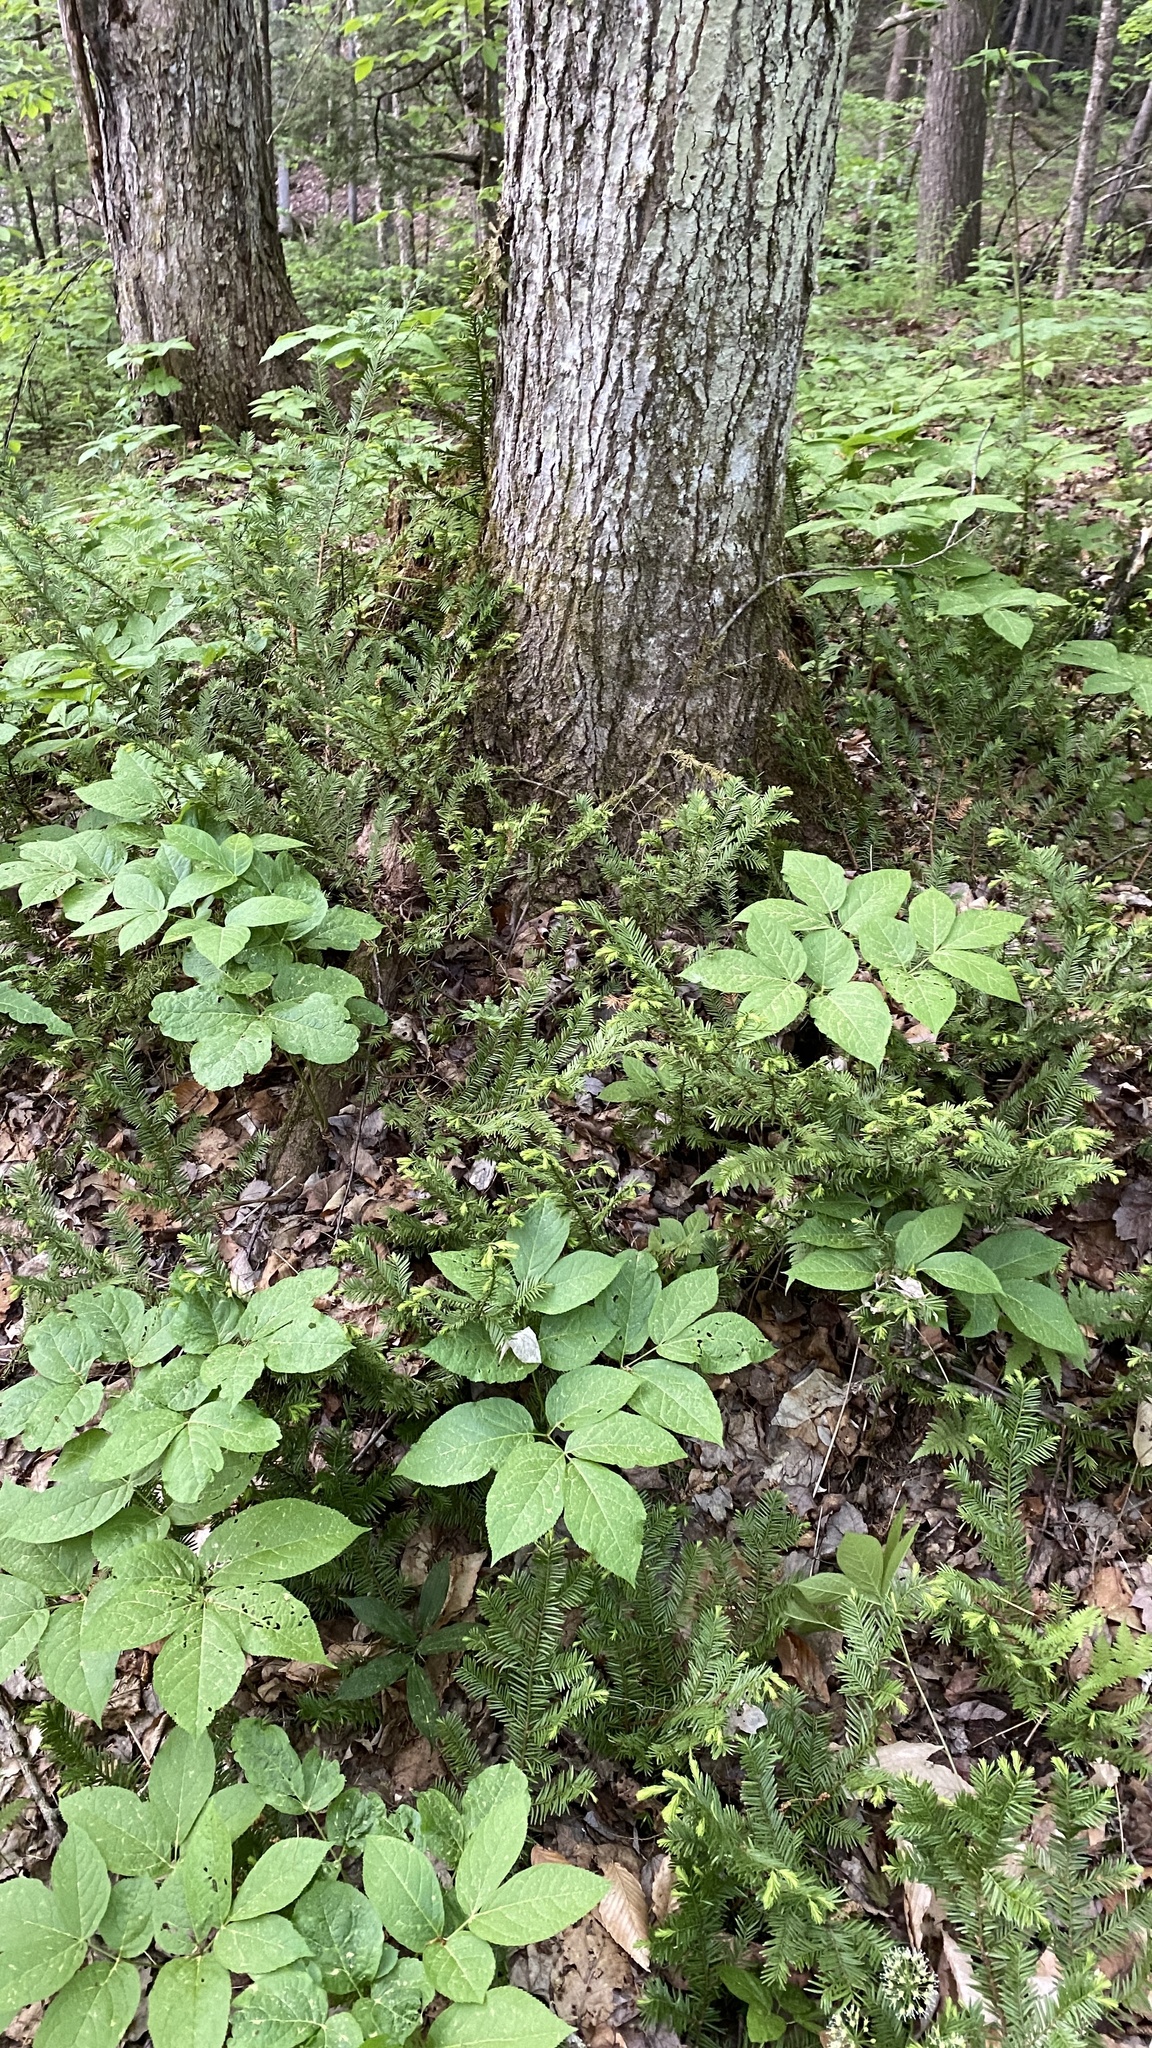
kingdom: Plantae
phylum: Tracheophyta
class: Pinopsida
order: Pinales
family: Taxaceae
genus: Taxus
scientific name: Taxus canadensis
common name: American yew
